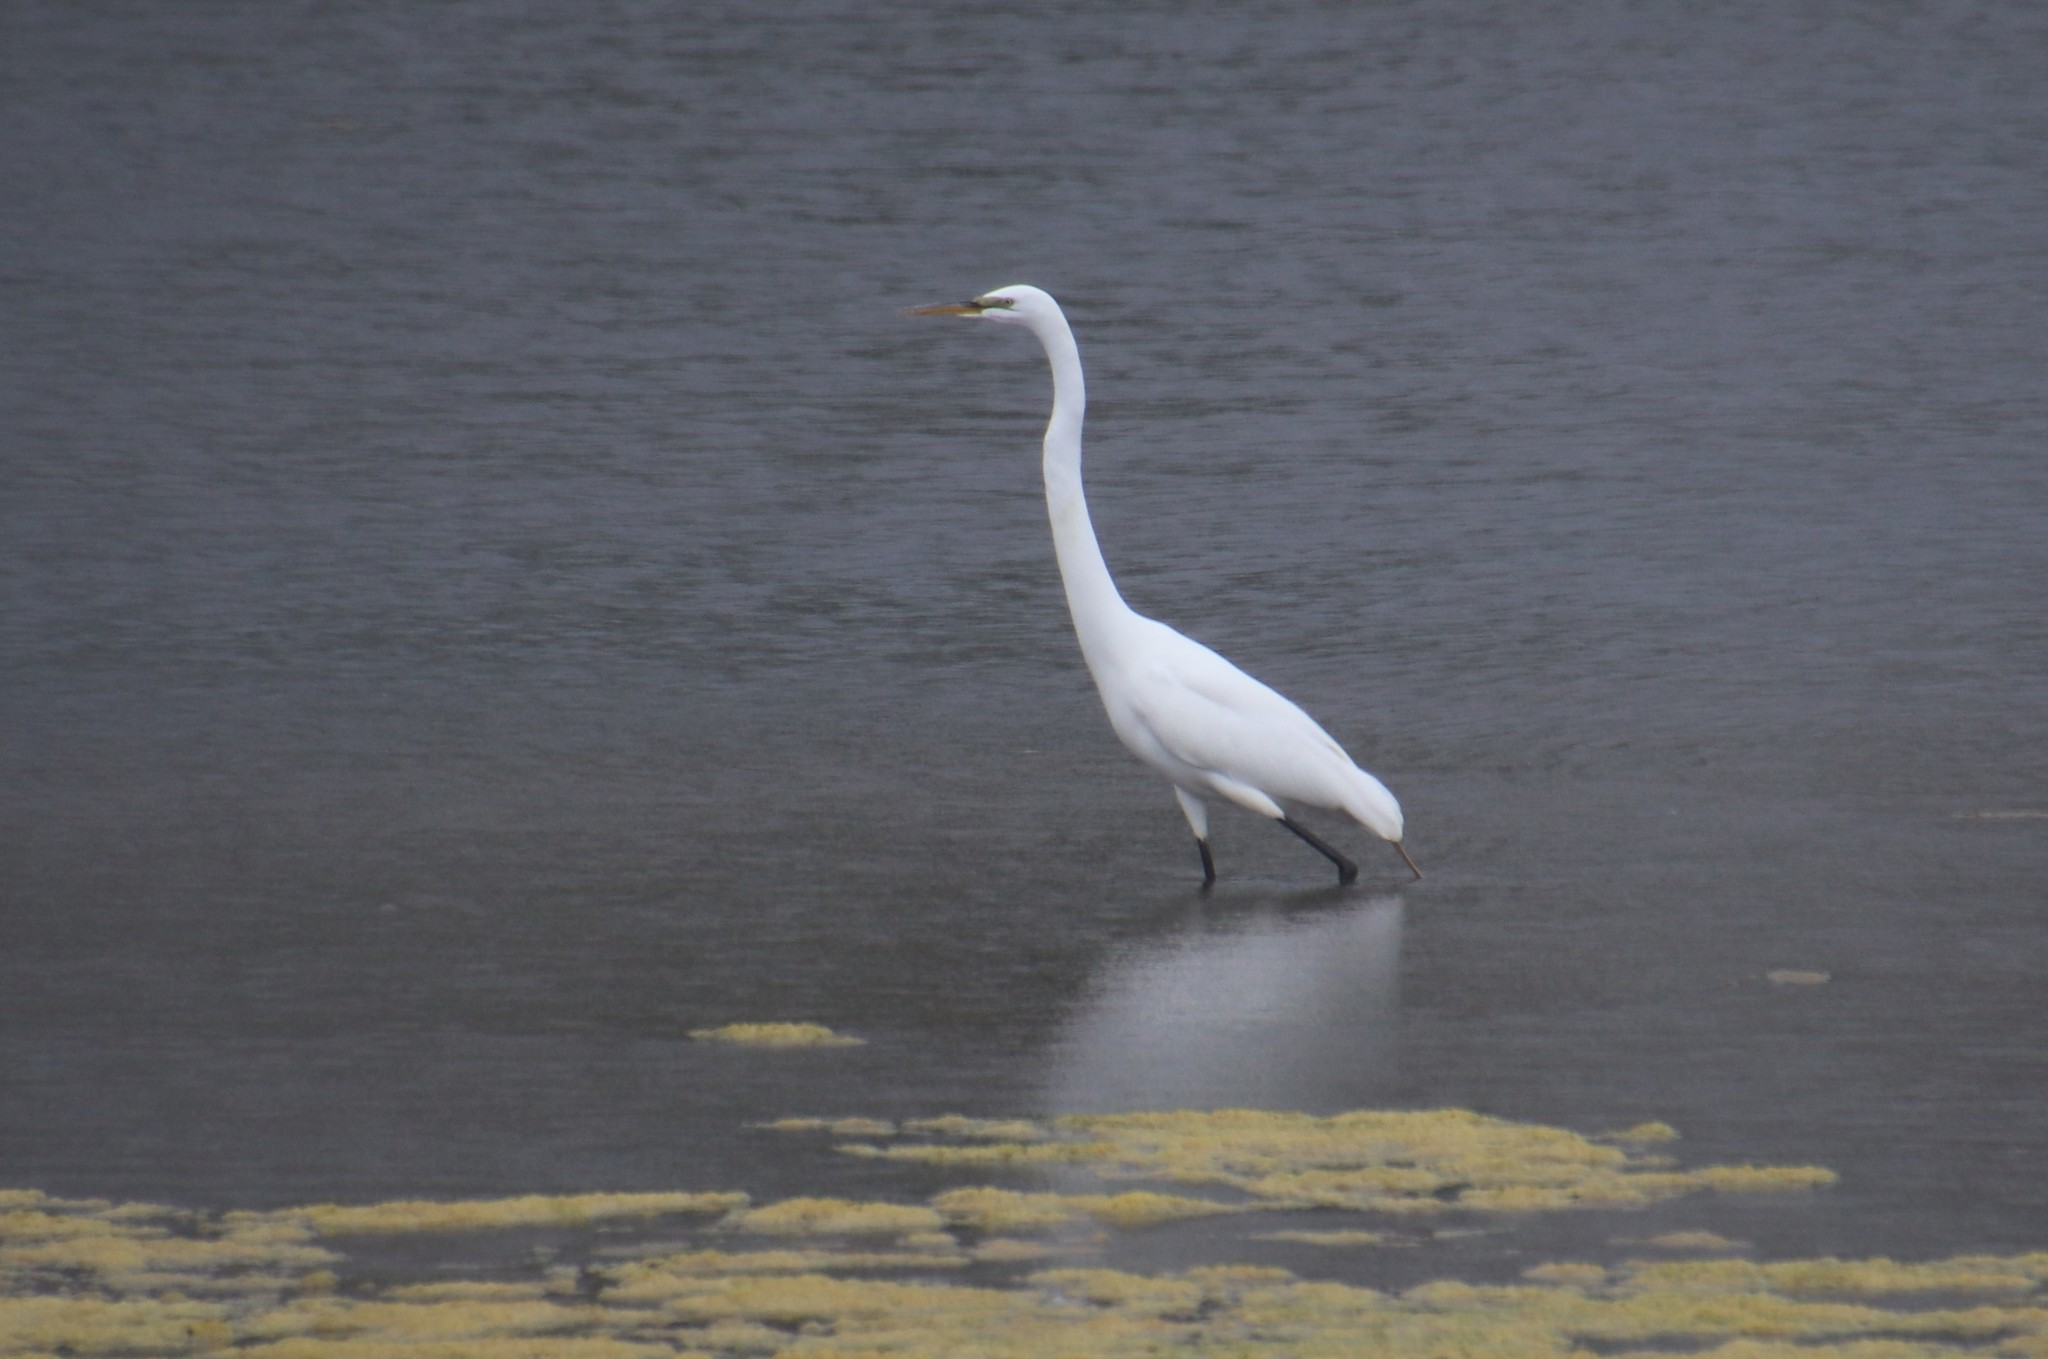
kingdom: Animalia
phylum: Chordata
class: Aves
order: Pelecaniformes
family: Ardeidae
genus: Ardea
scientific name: Ardea alba
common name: Great egret
